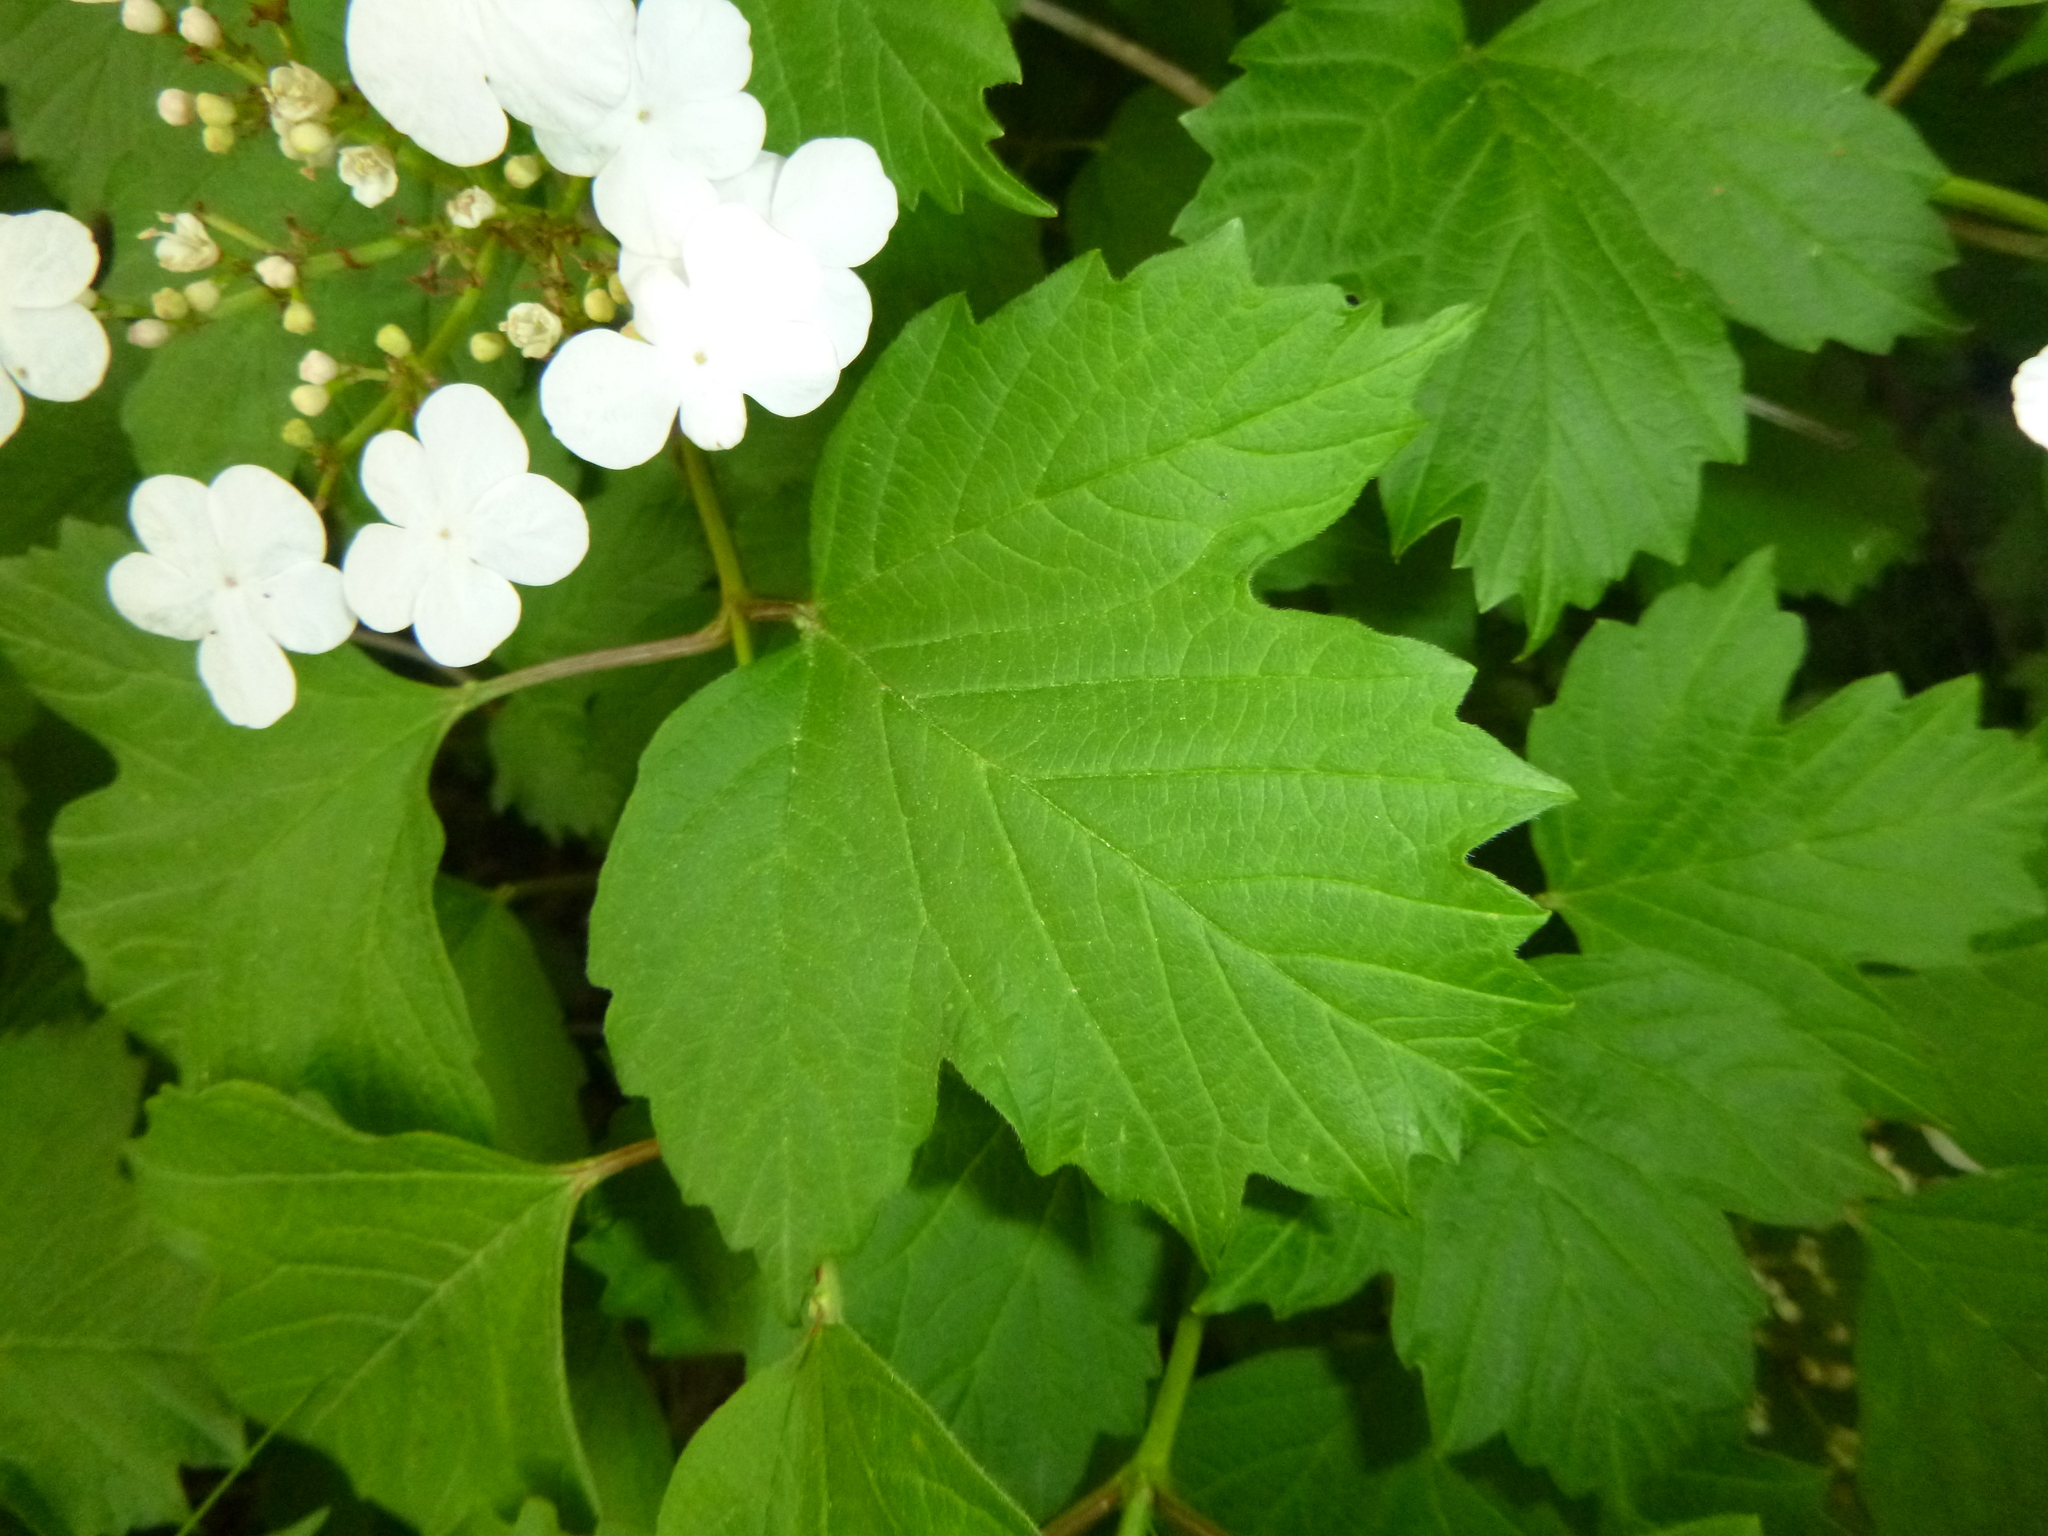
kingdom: Plantae
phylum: Tracheophyta
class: Magnoliopsida
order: Dipsacales
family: Viburnaceae
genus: Viburnum
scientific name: Viburnum opulus
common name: Guelder-rose
